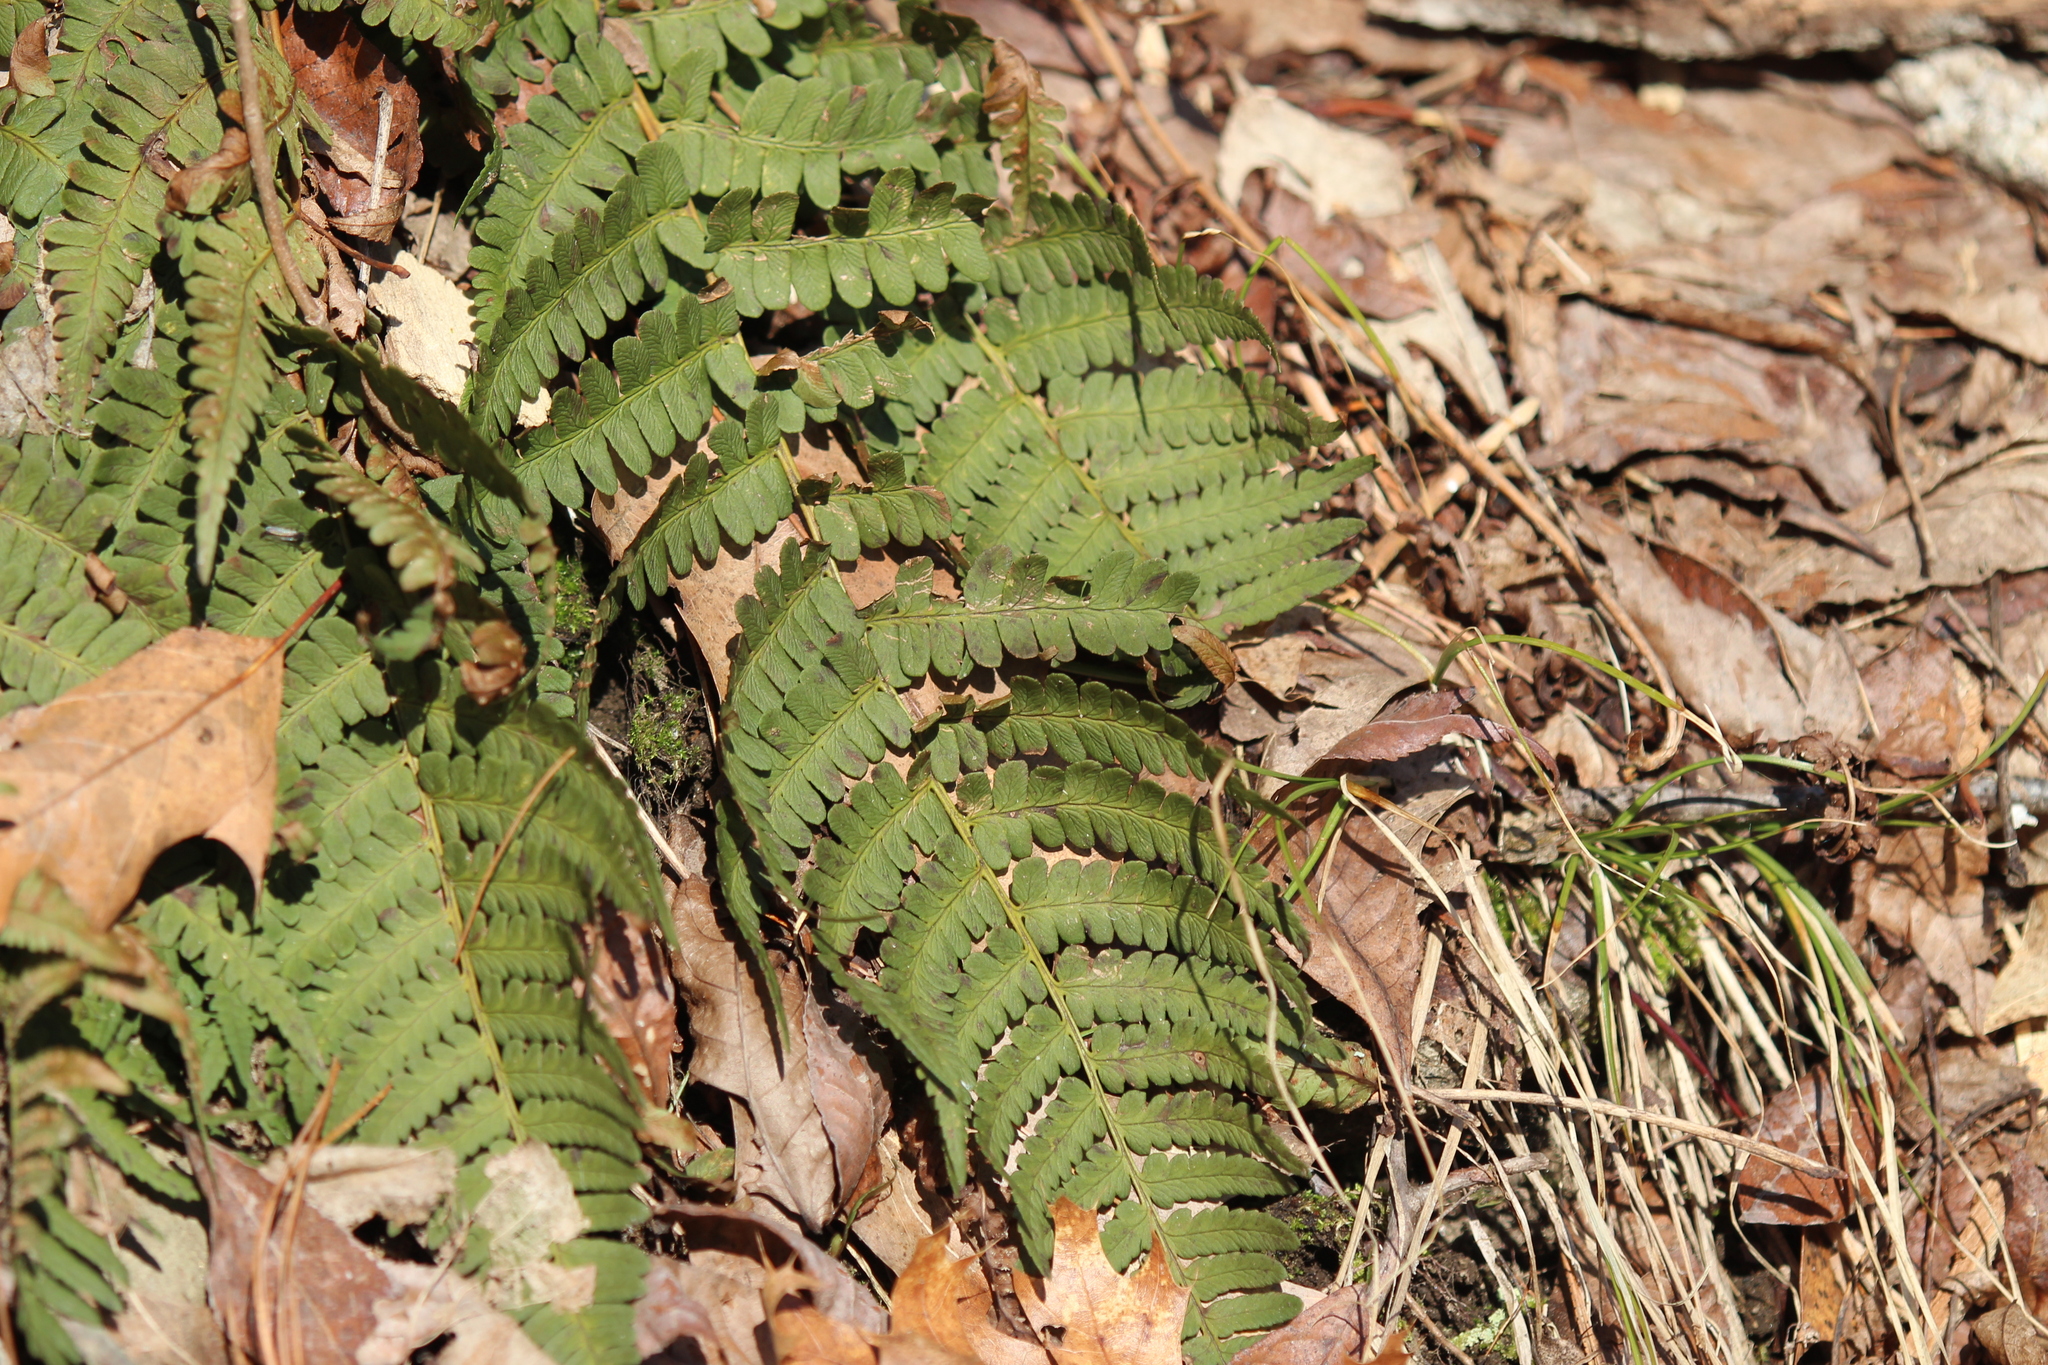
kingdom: Plantae
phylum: Tracheophyta
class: Polypodiopsida
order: Polypodiales
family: Dryopteridaceae
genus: Dryopteris
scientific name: Dryopteris marginalis
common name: Marginal wood fern
